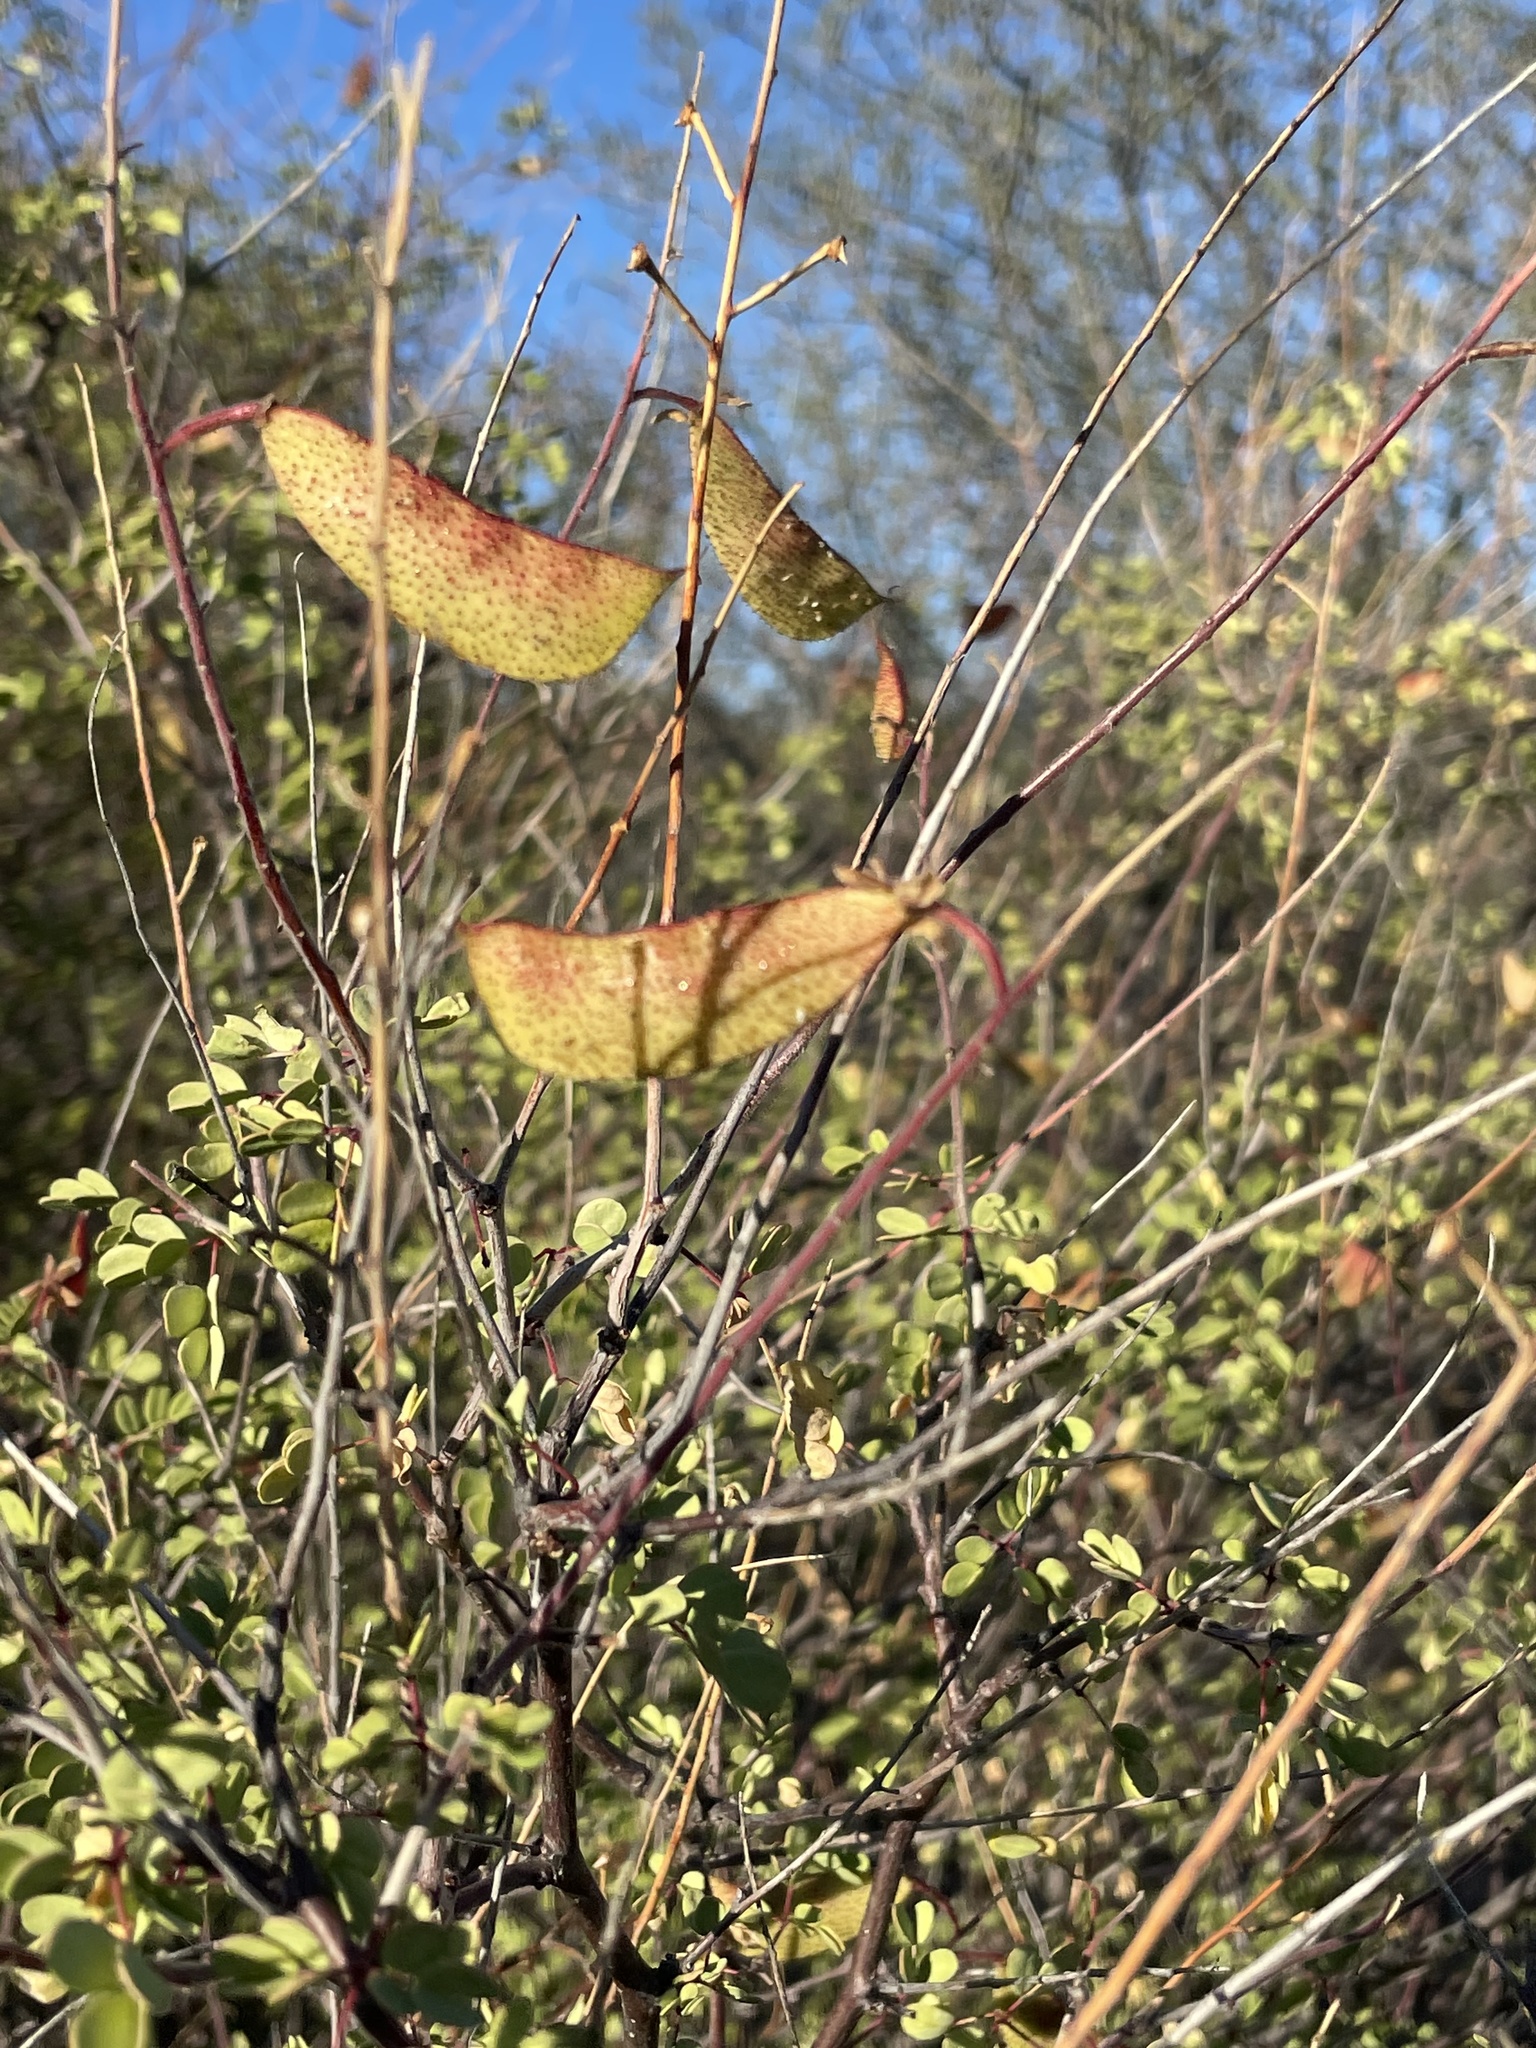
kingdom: Plantae
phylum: Tracheophyta
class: Magnoliopsida
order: Fabales
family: Fabaceae
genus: Erythrostemon
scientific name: Erythrostemon pannosus
